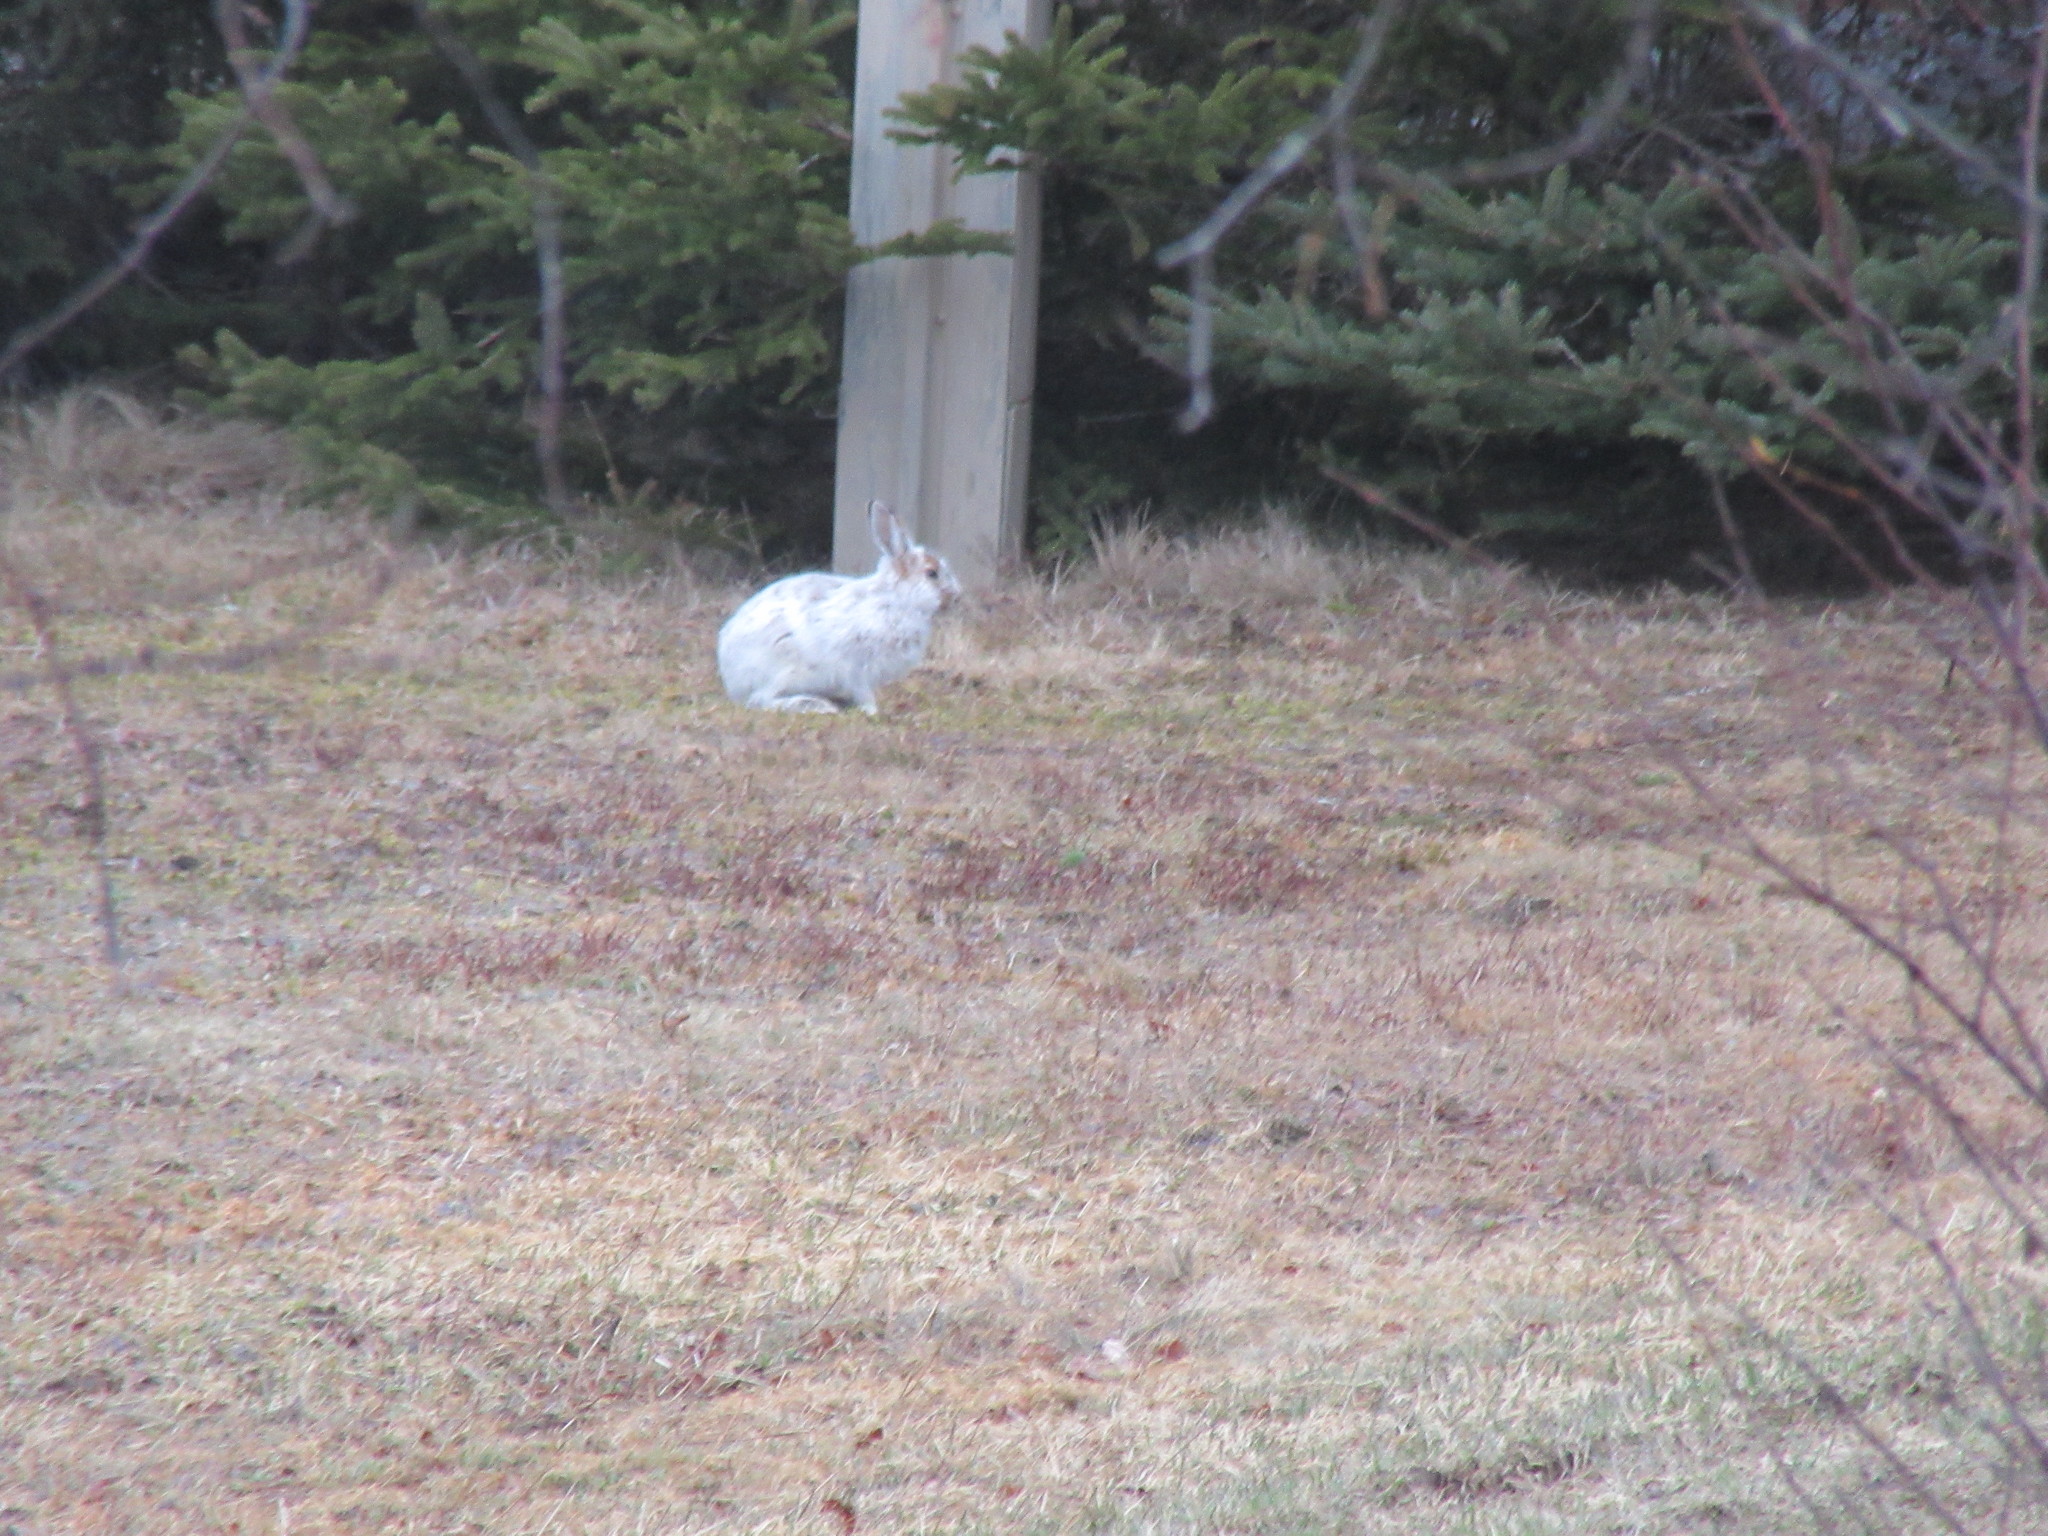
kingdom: Animalia
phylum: Chordata
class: Mammalia
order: Lagomorpha
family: Leporidae
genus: Lepus
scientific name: Lepus americanus
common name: Snowshoe hare
